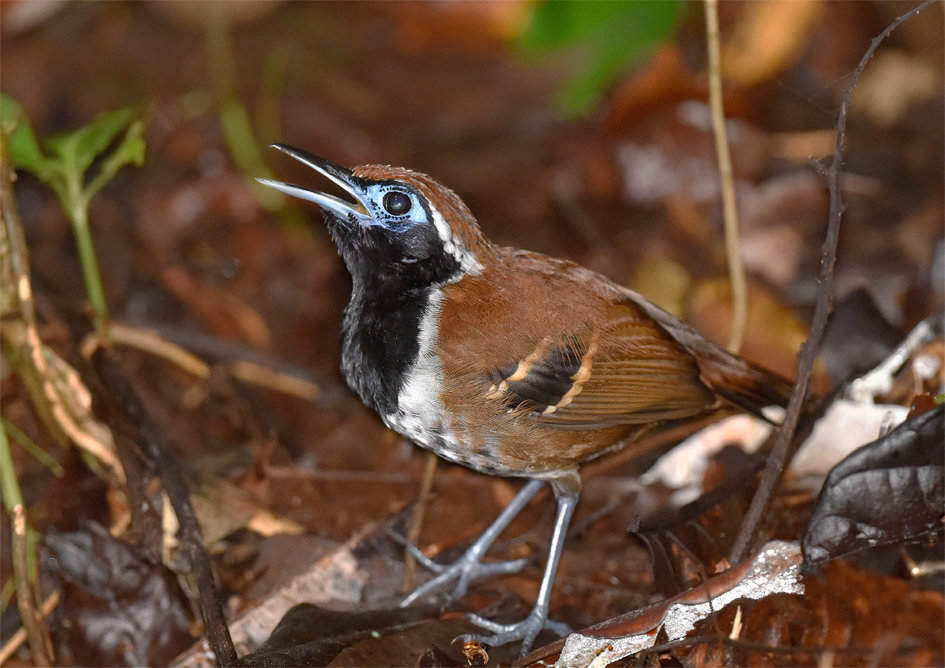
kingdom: Animalia
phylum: Chordata
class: Aves
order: Passeriformes
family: Thamnophilidae
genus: Myrmeciza
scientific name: Myrmeciza ferruginea
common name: Ferruginous-backed antbird
